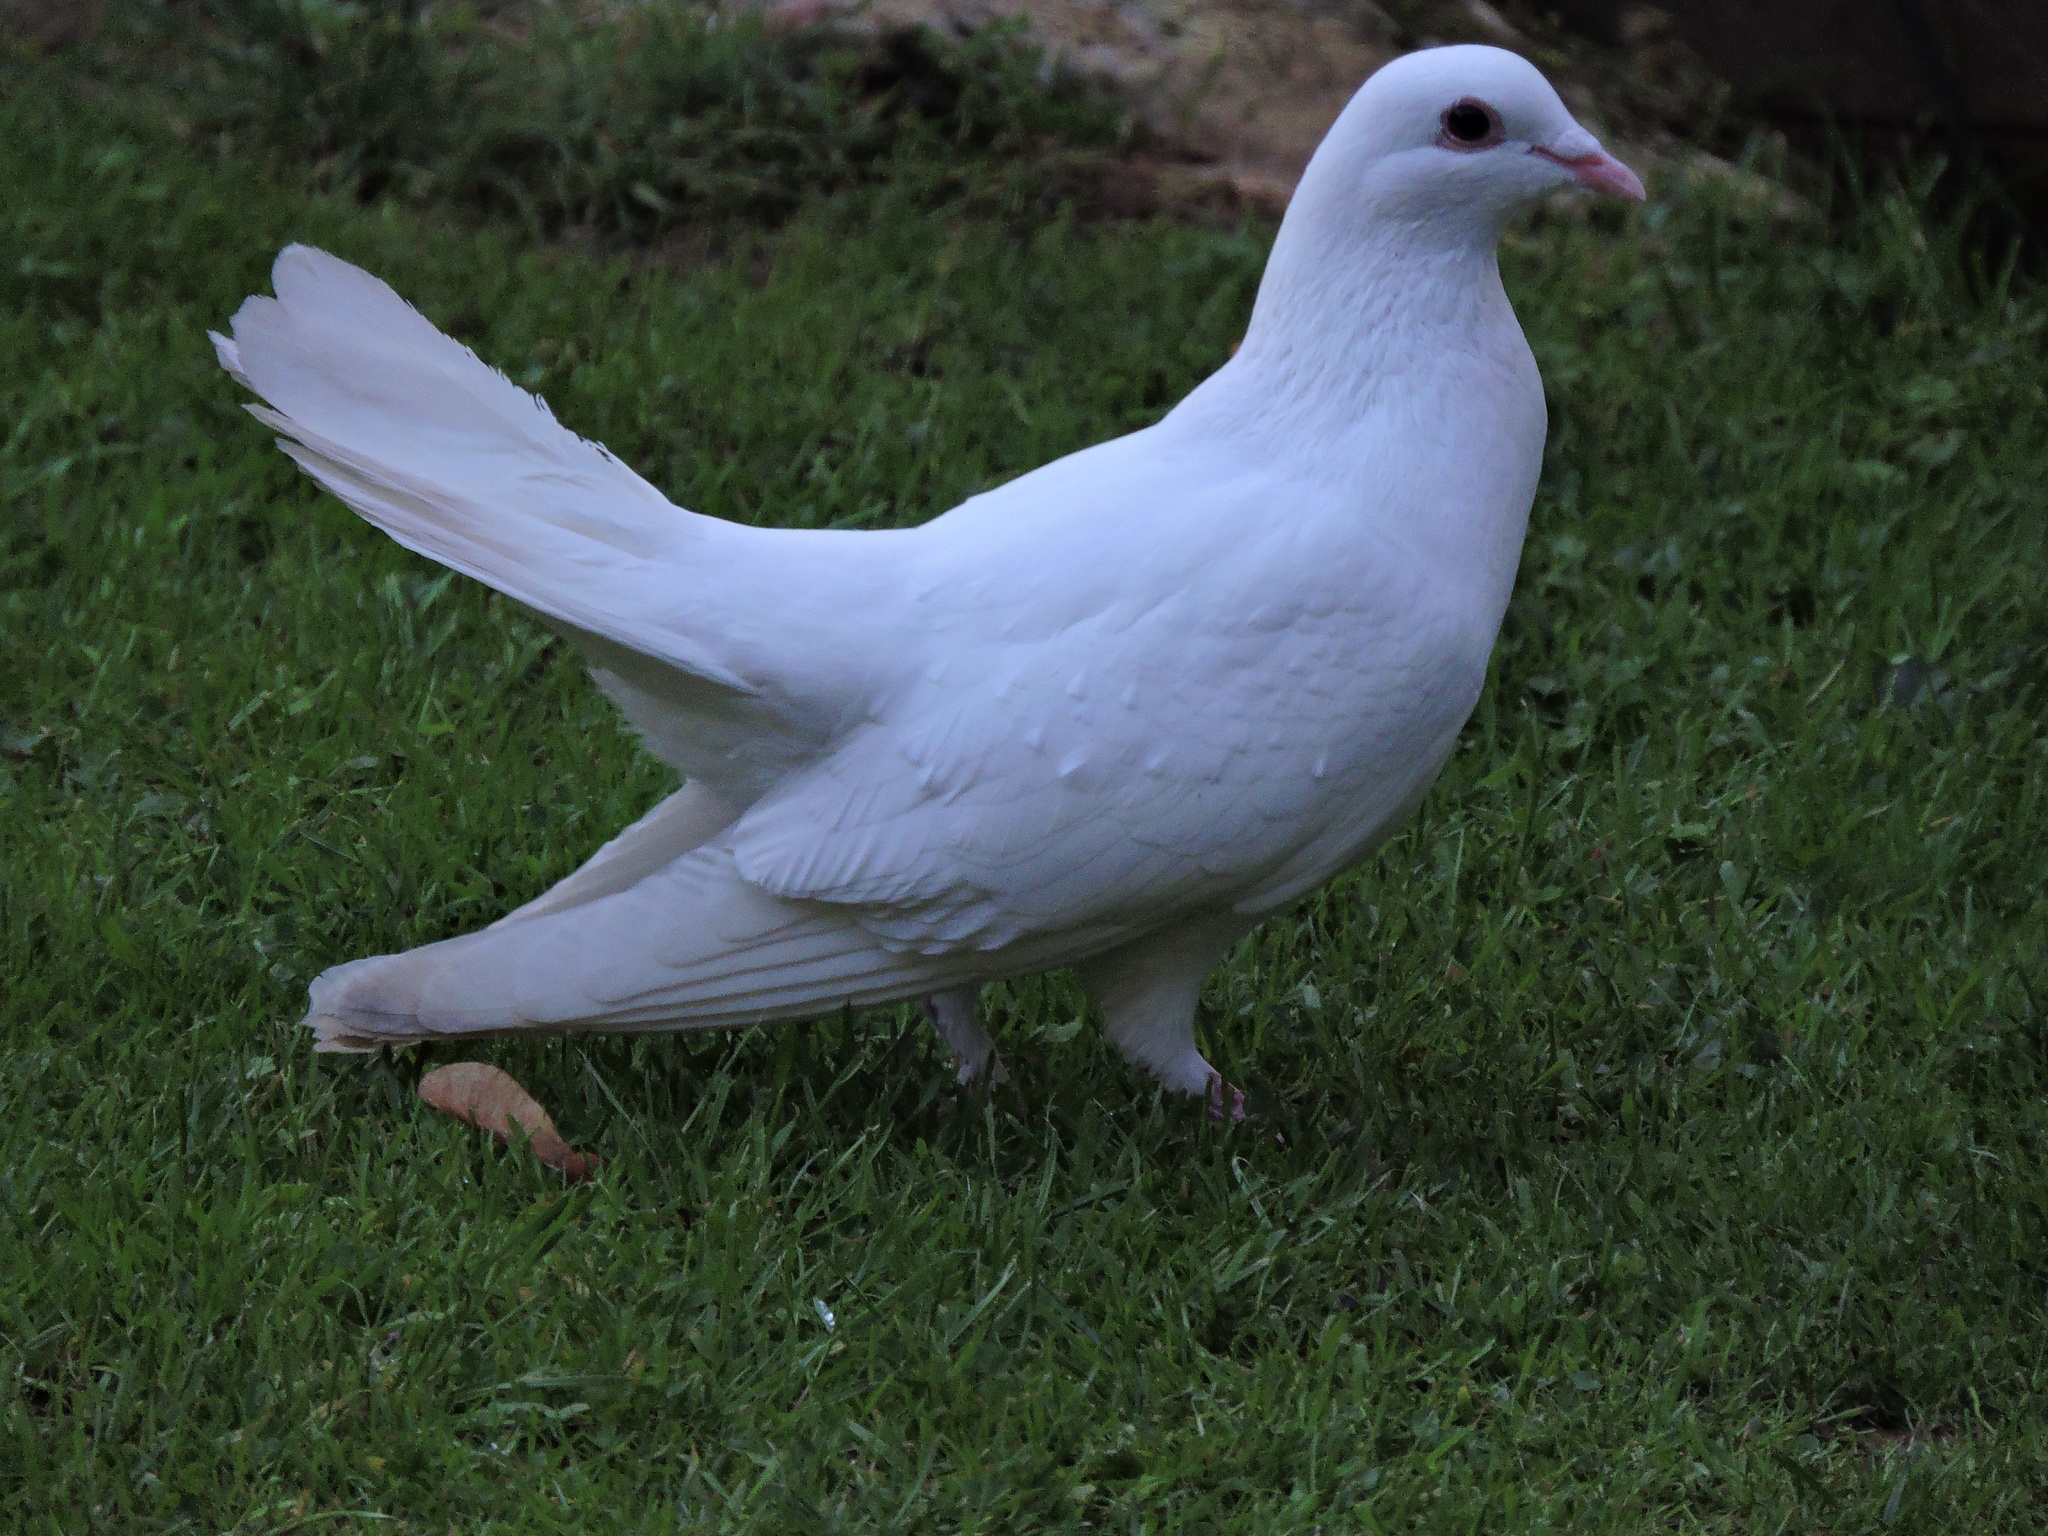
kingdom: Animalia
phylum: Chordata
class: Aves
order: Columbiformes
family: Columbidae
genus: Columba
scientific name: Columba livia
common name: Rock pigeon
